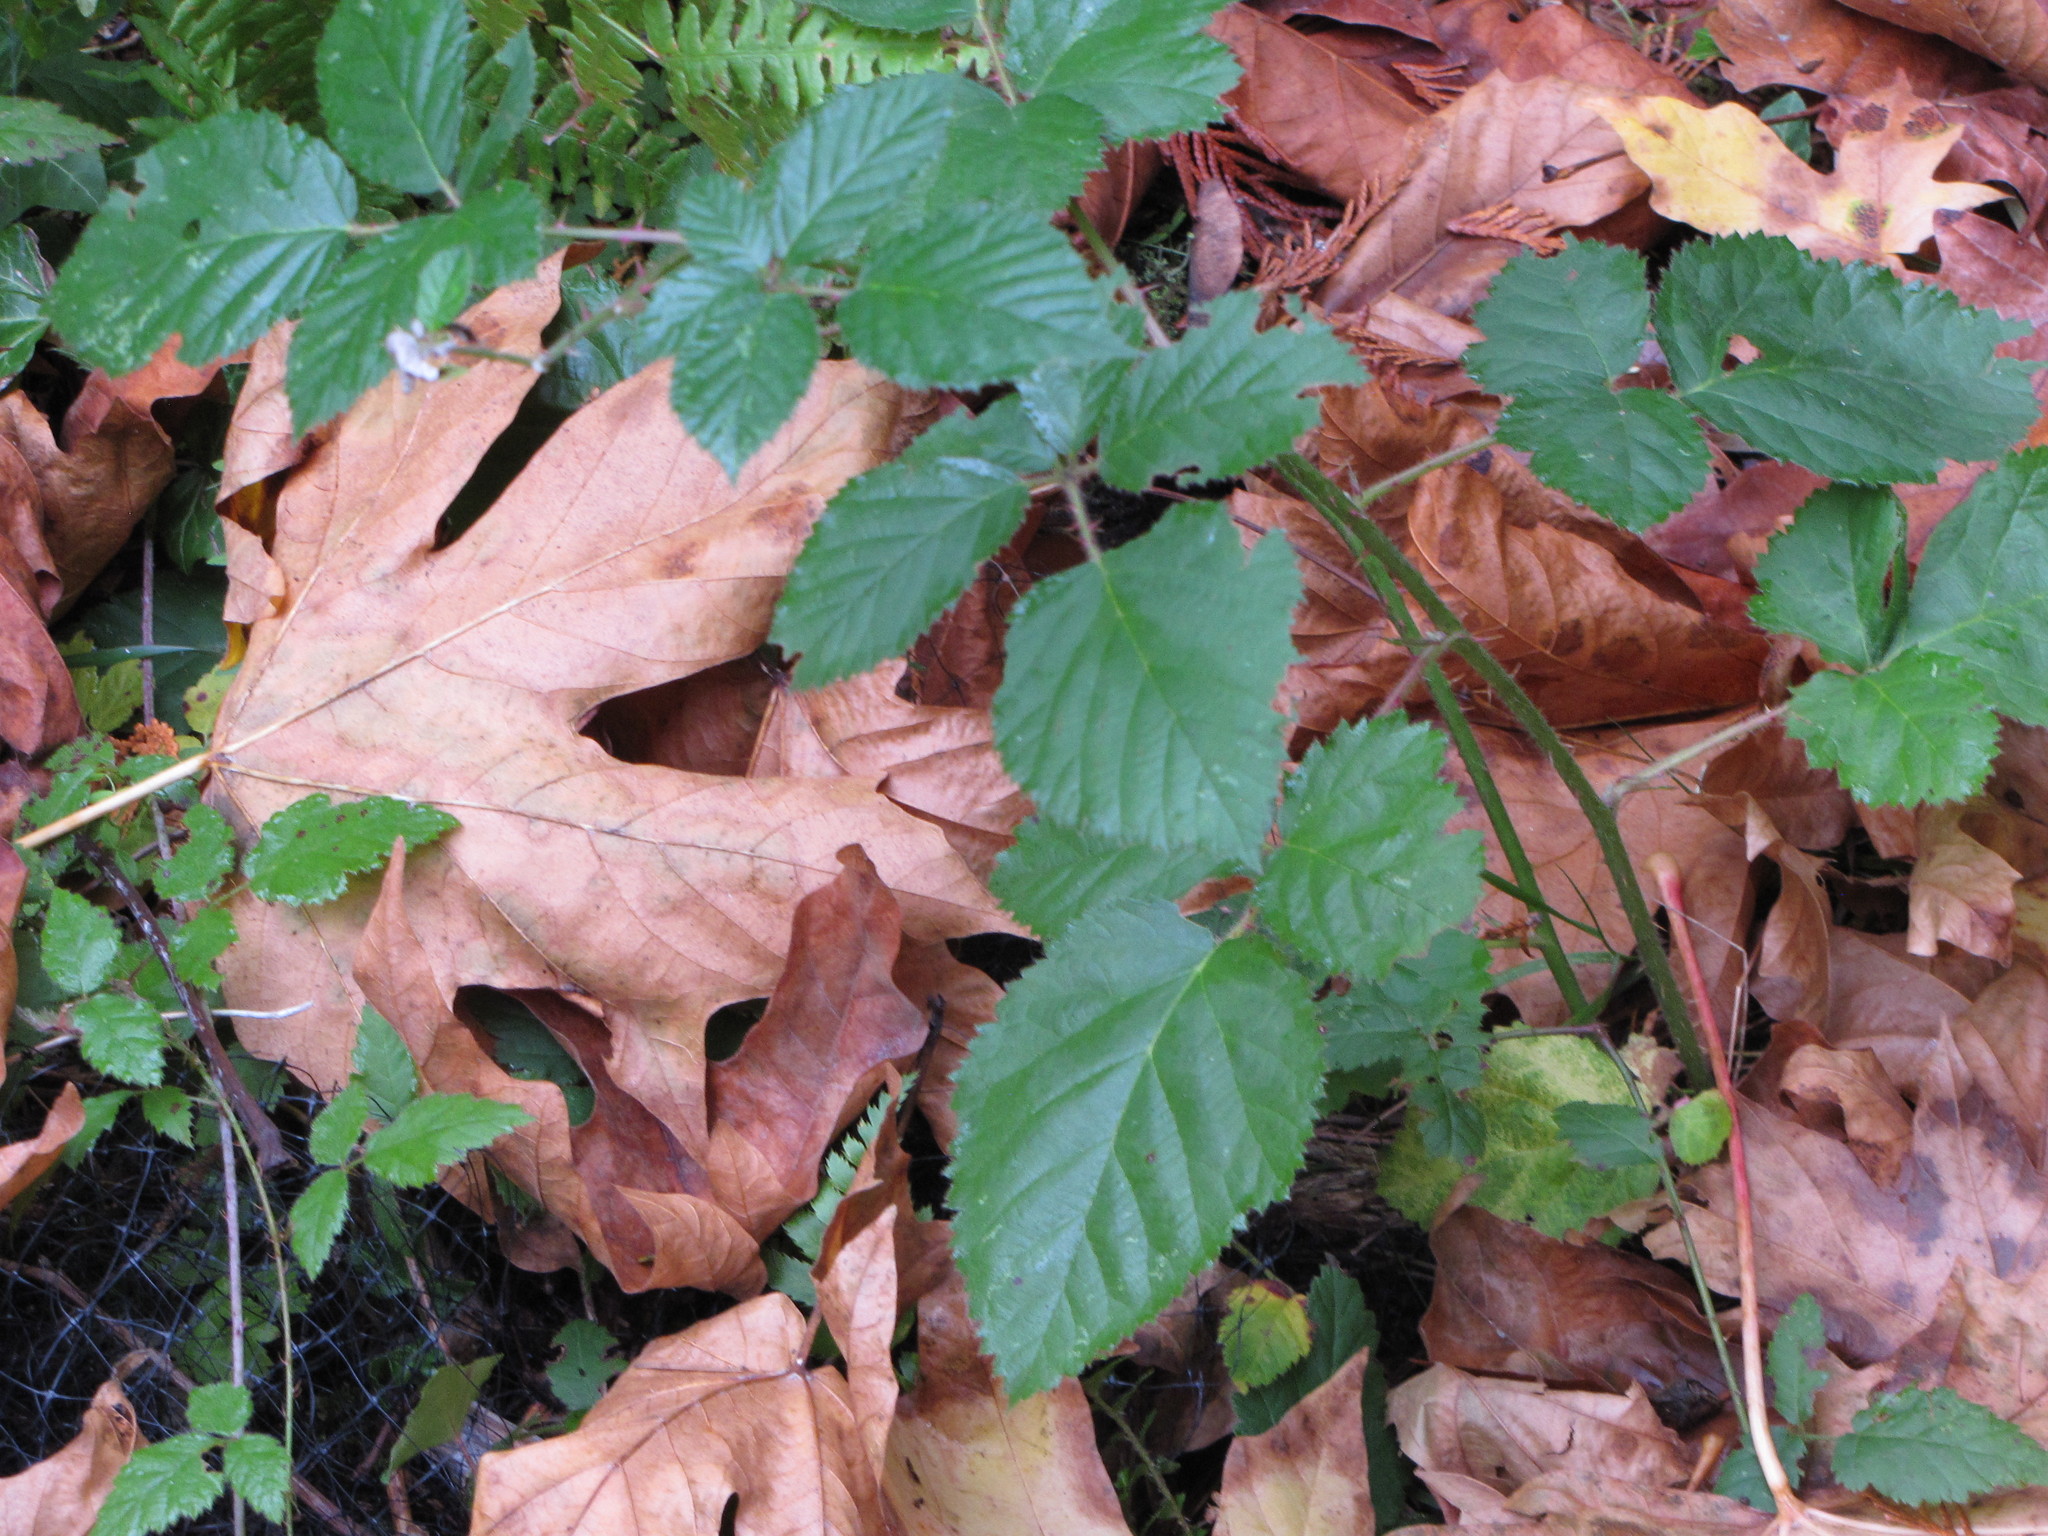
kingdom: Plantae
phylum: Tracheophyta
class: Magnoliopsida
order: Rosales
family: Rosaceae
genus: Rubus
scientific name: Rubus ursinus
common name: Pacific blackberry
